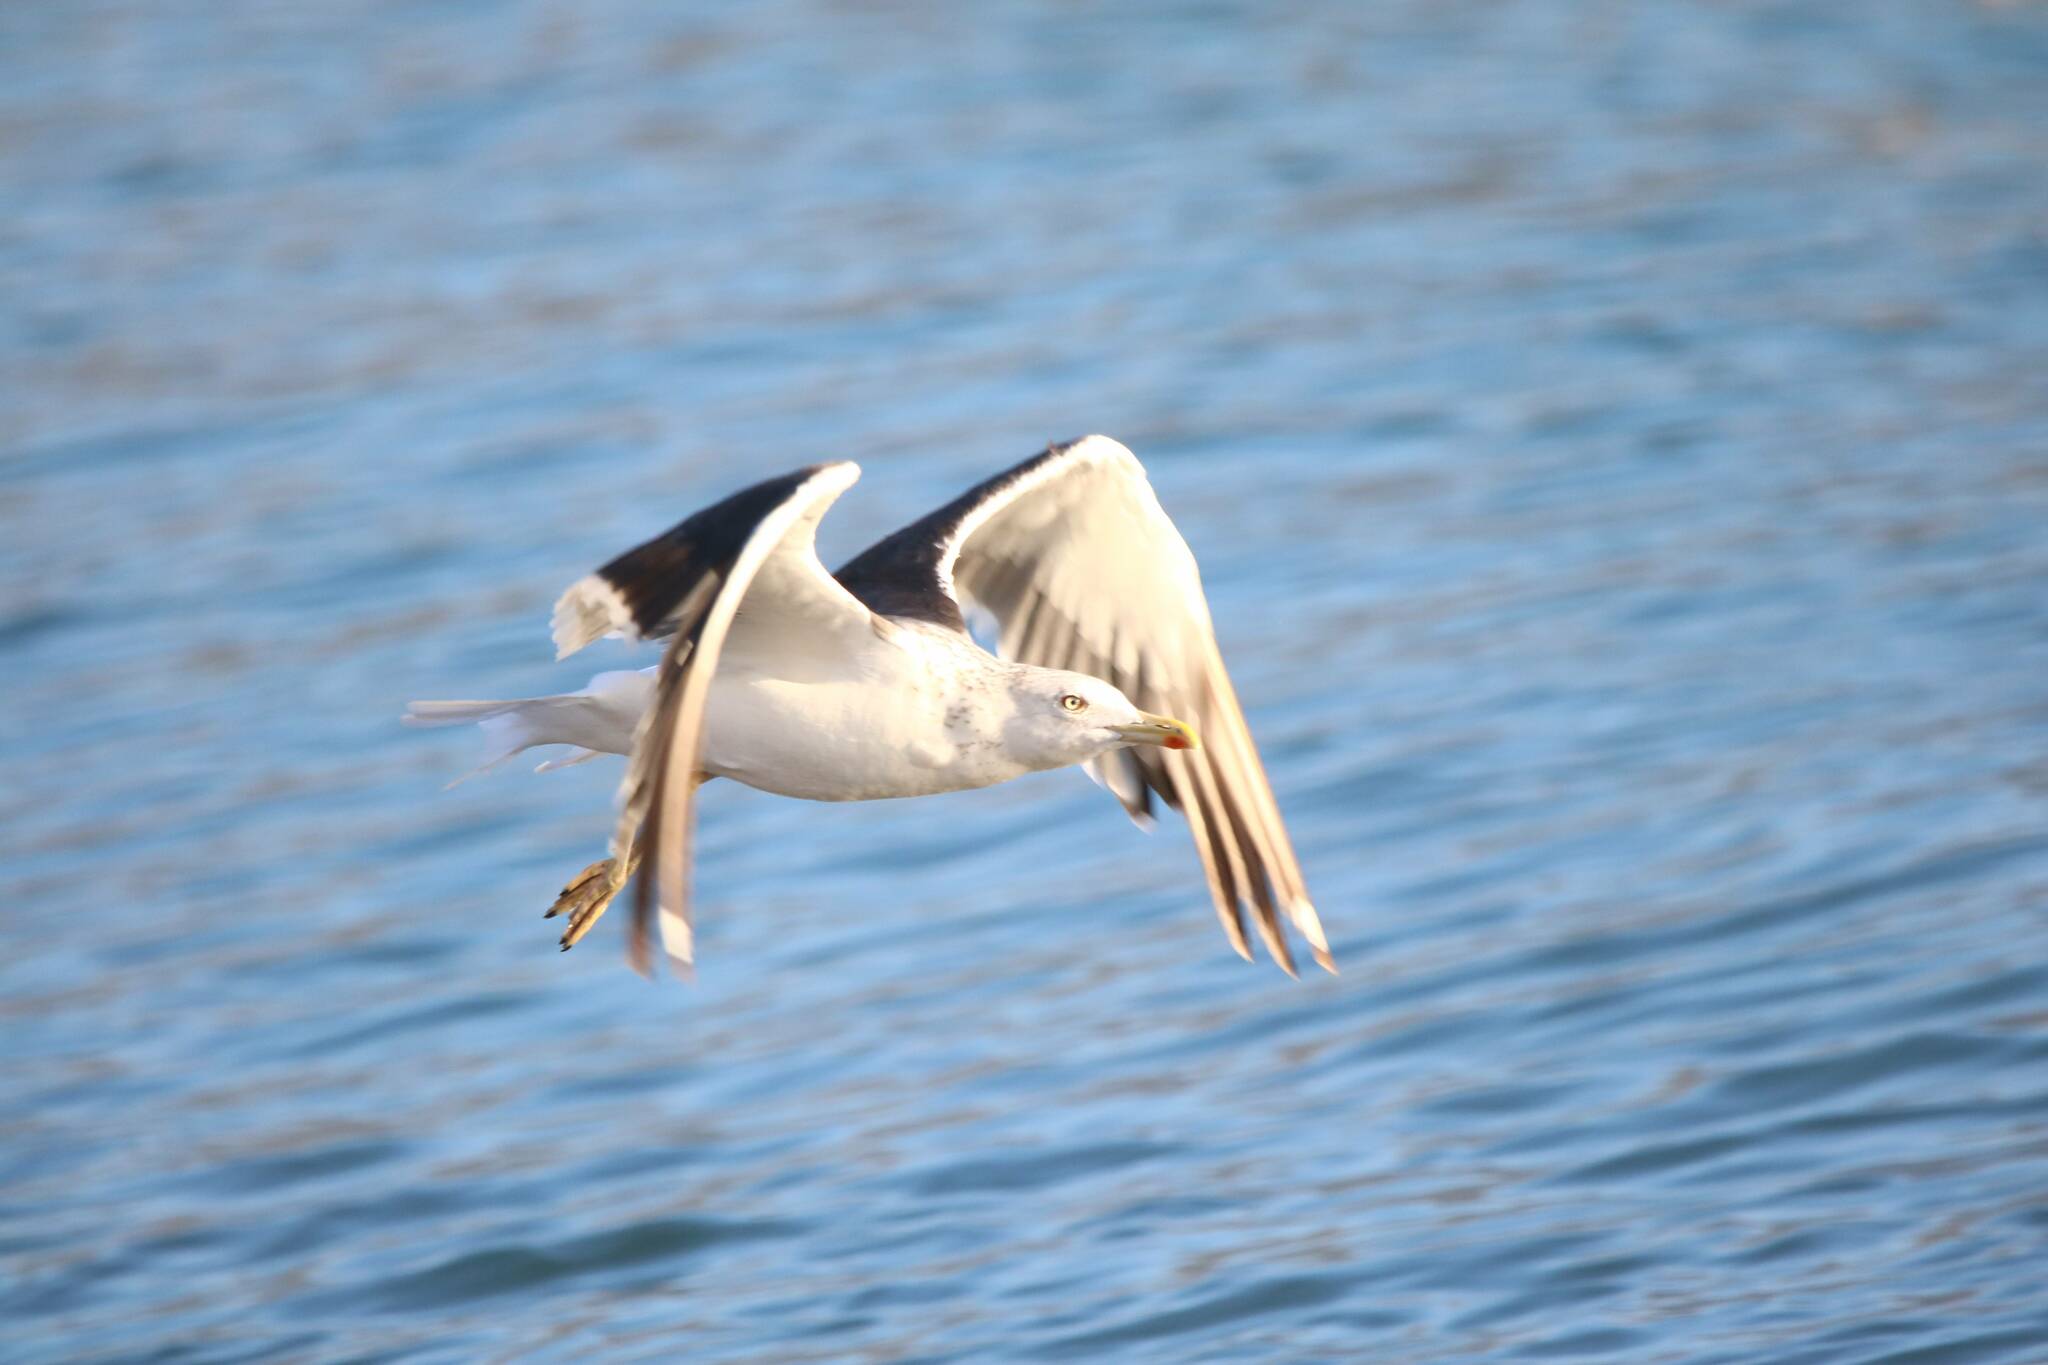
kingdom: Animalia
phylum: Chordata
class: Aves
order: Charadriiformes
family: Laridae
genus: Larus
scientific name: Larus fuscus
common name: Lesser black-backed gull
